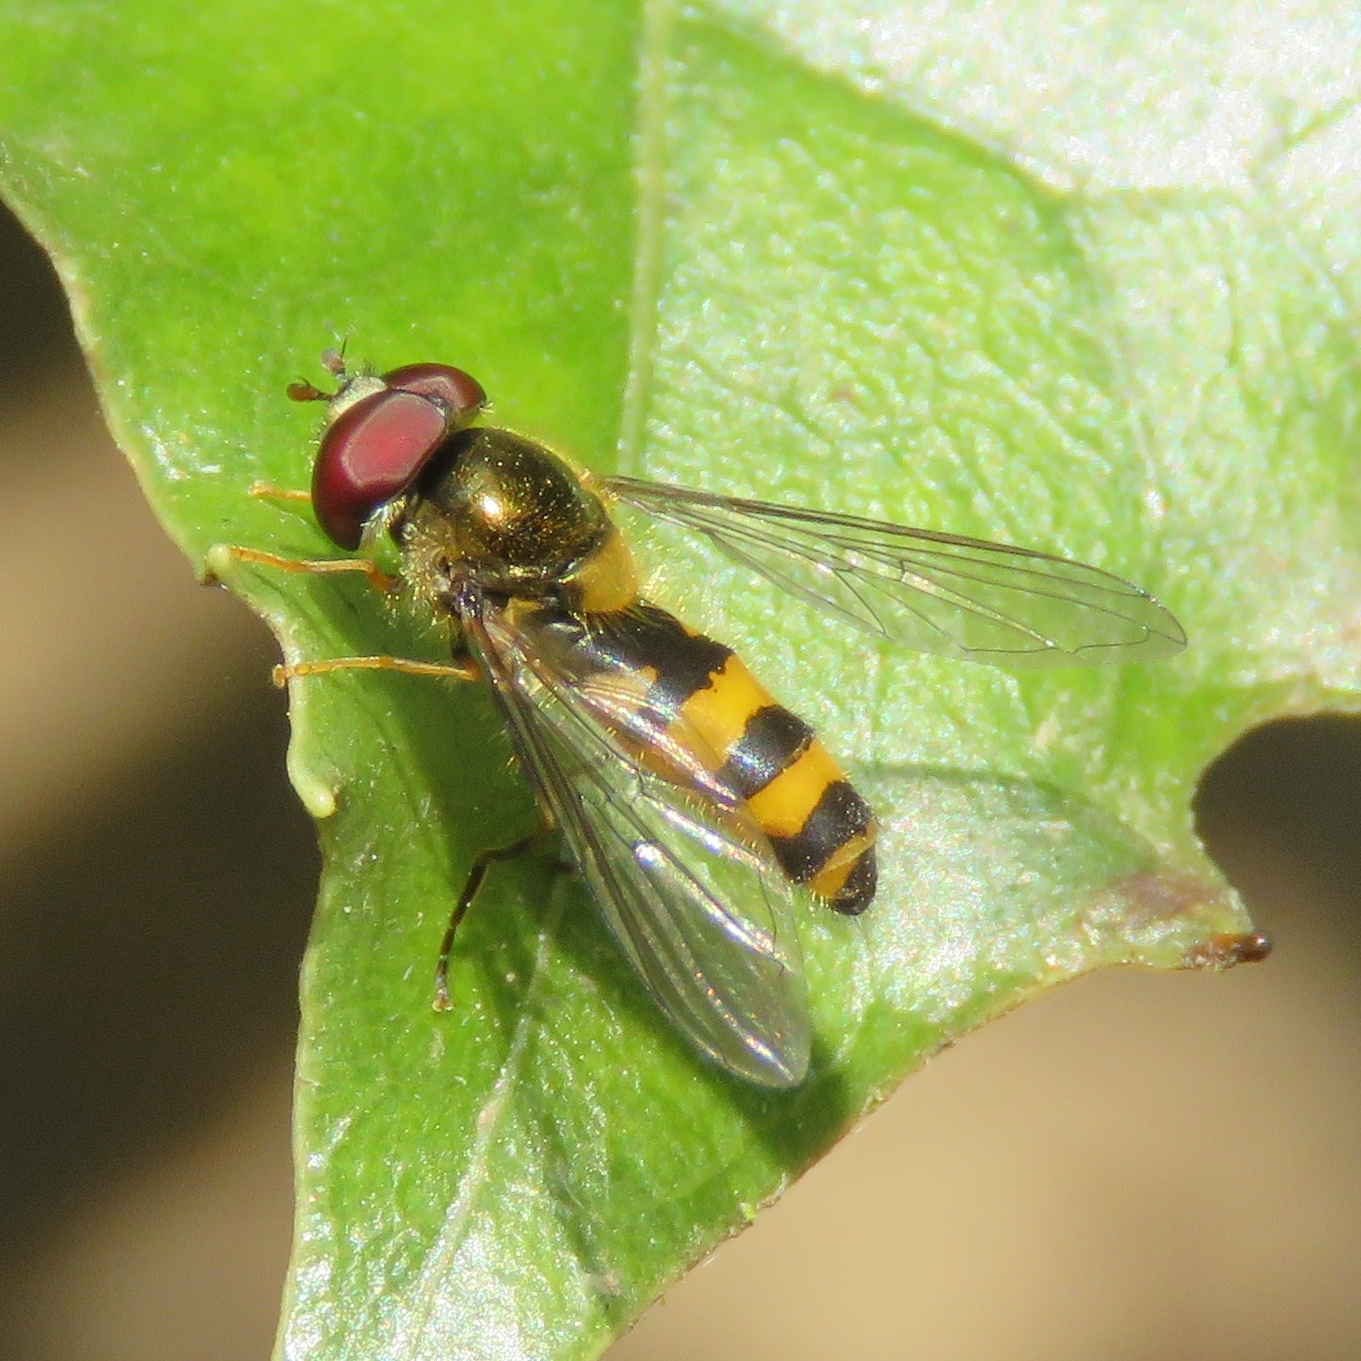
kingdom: Animalia
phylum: Arthropoda
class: Insecta
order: Diptera
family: Syrphidae
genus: Fagisyrphus
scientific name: Fagisyrphus cincta
